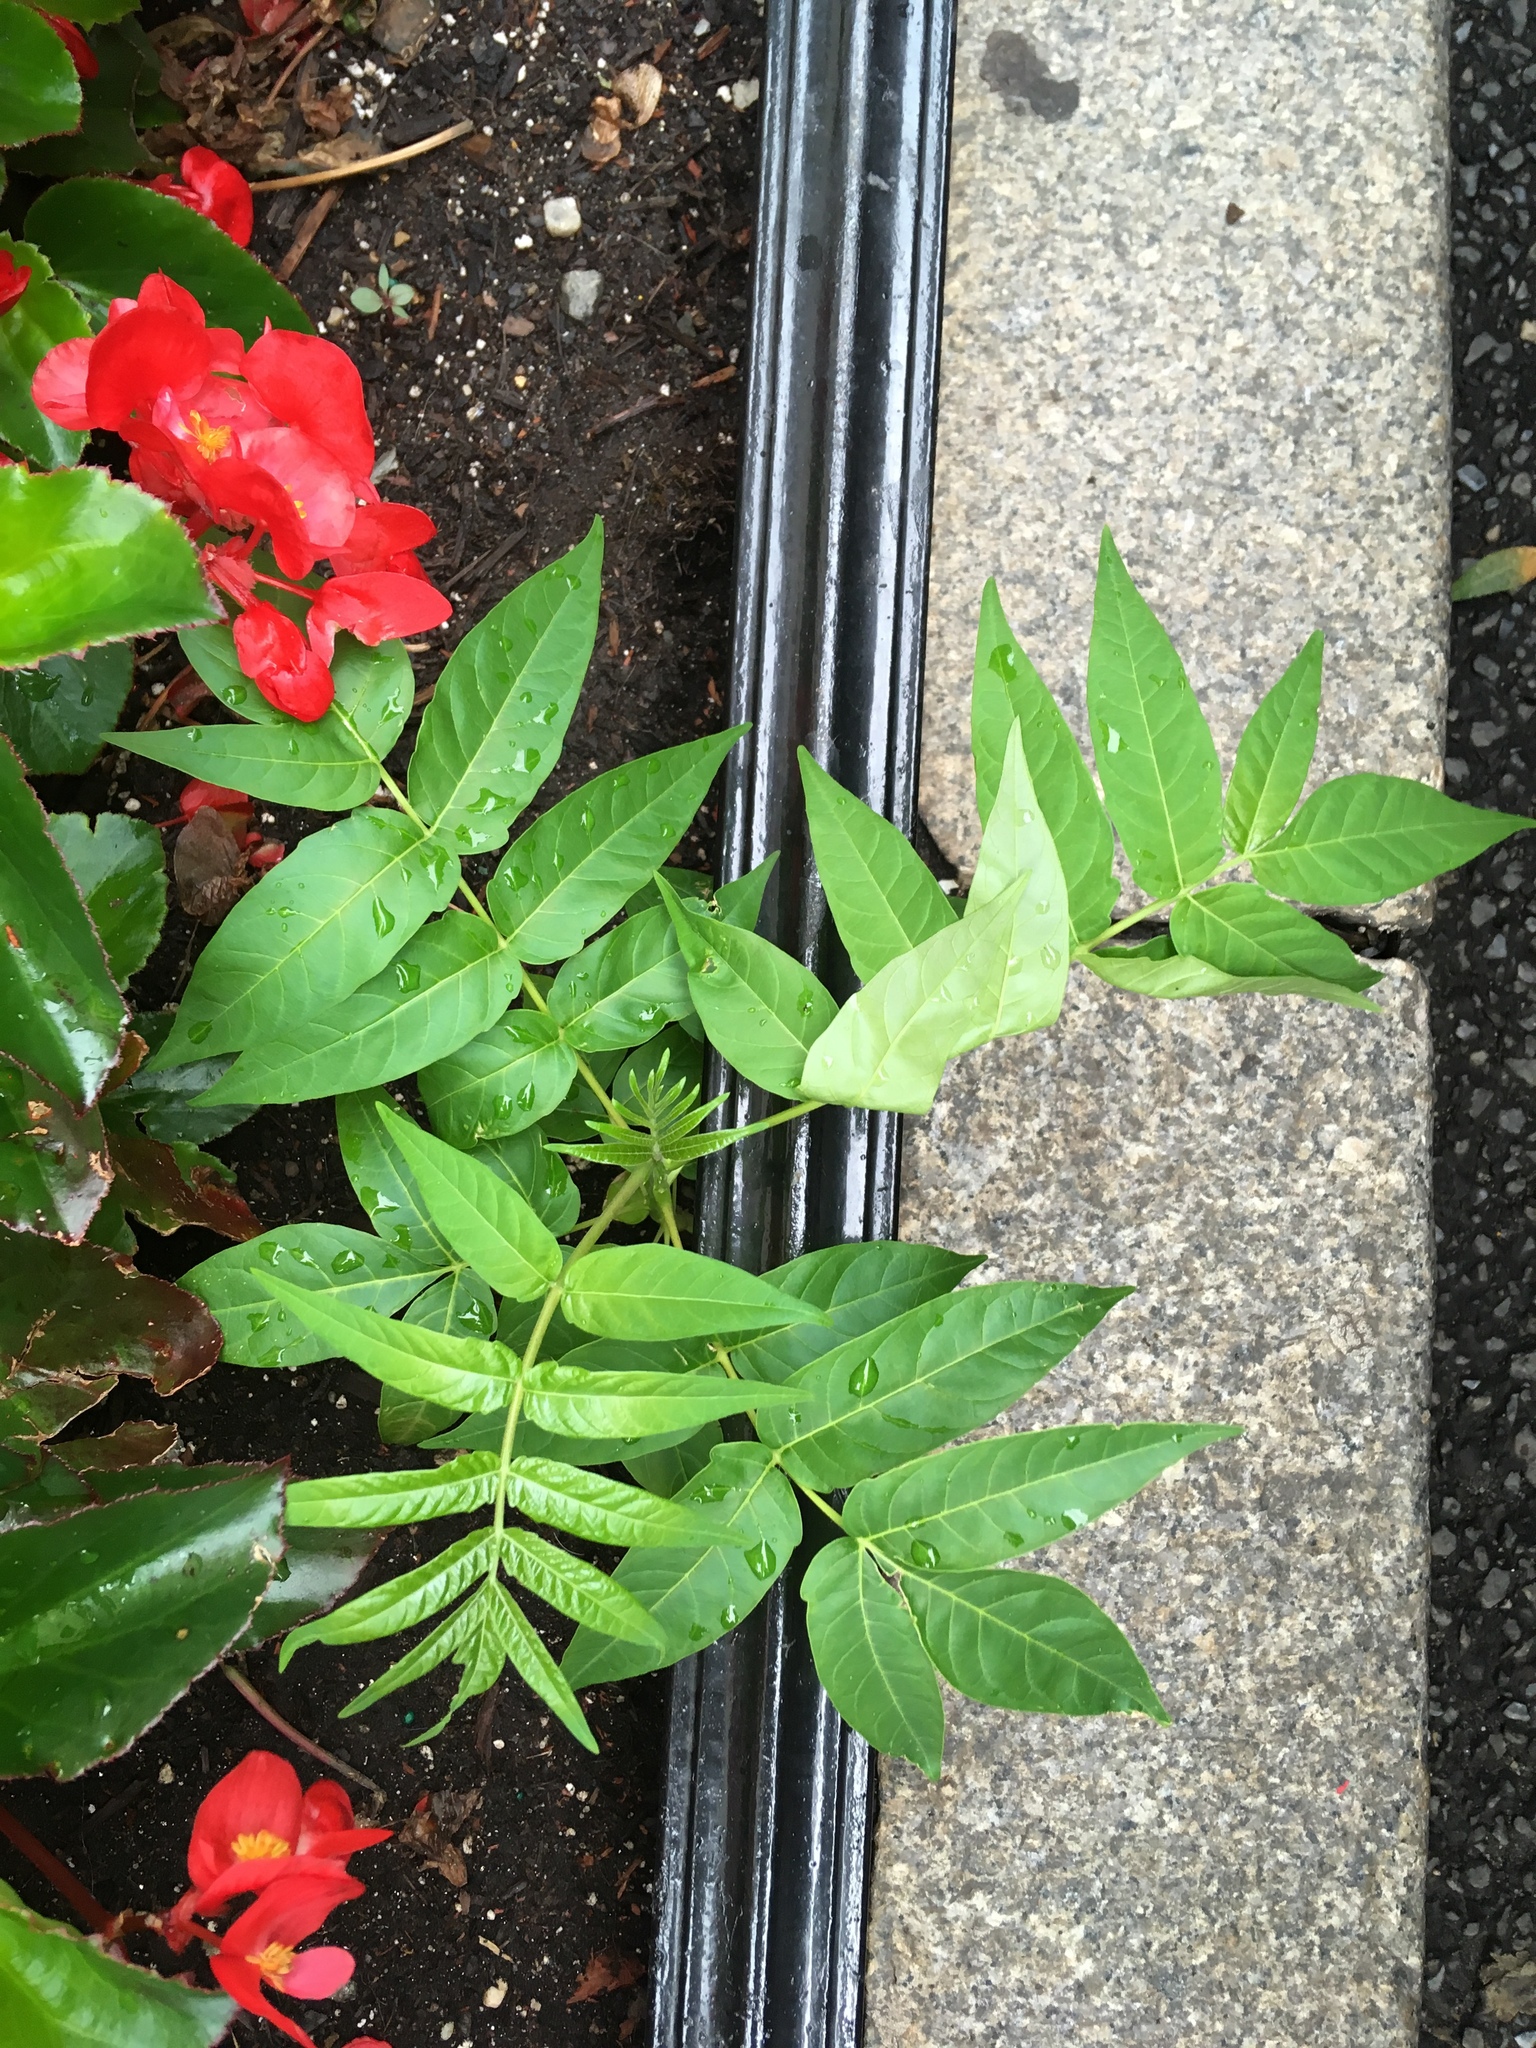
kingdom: Plantae
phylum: Tracheophyta
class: Magnoliopsida
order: Sapindales
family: Simaroubaceae
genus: Ailanthus
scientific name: Ailanthus altissima
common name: Tree-of-heaven
